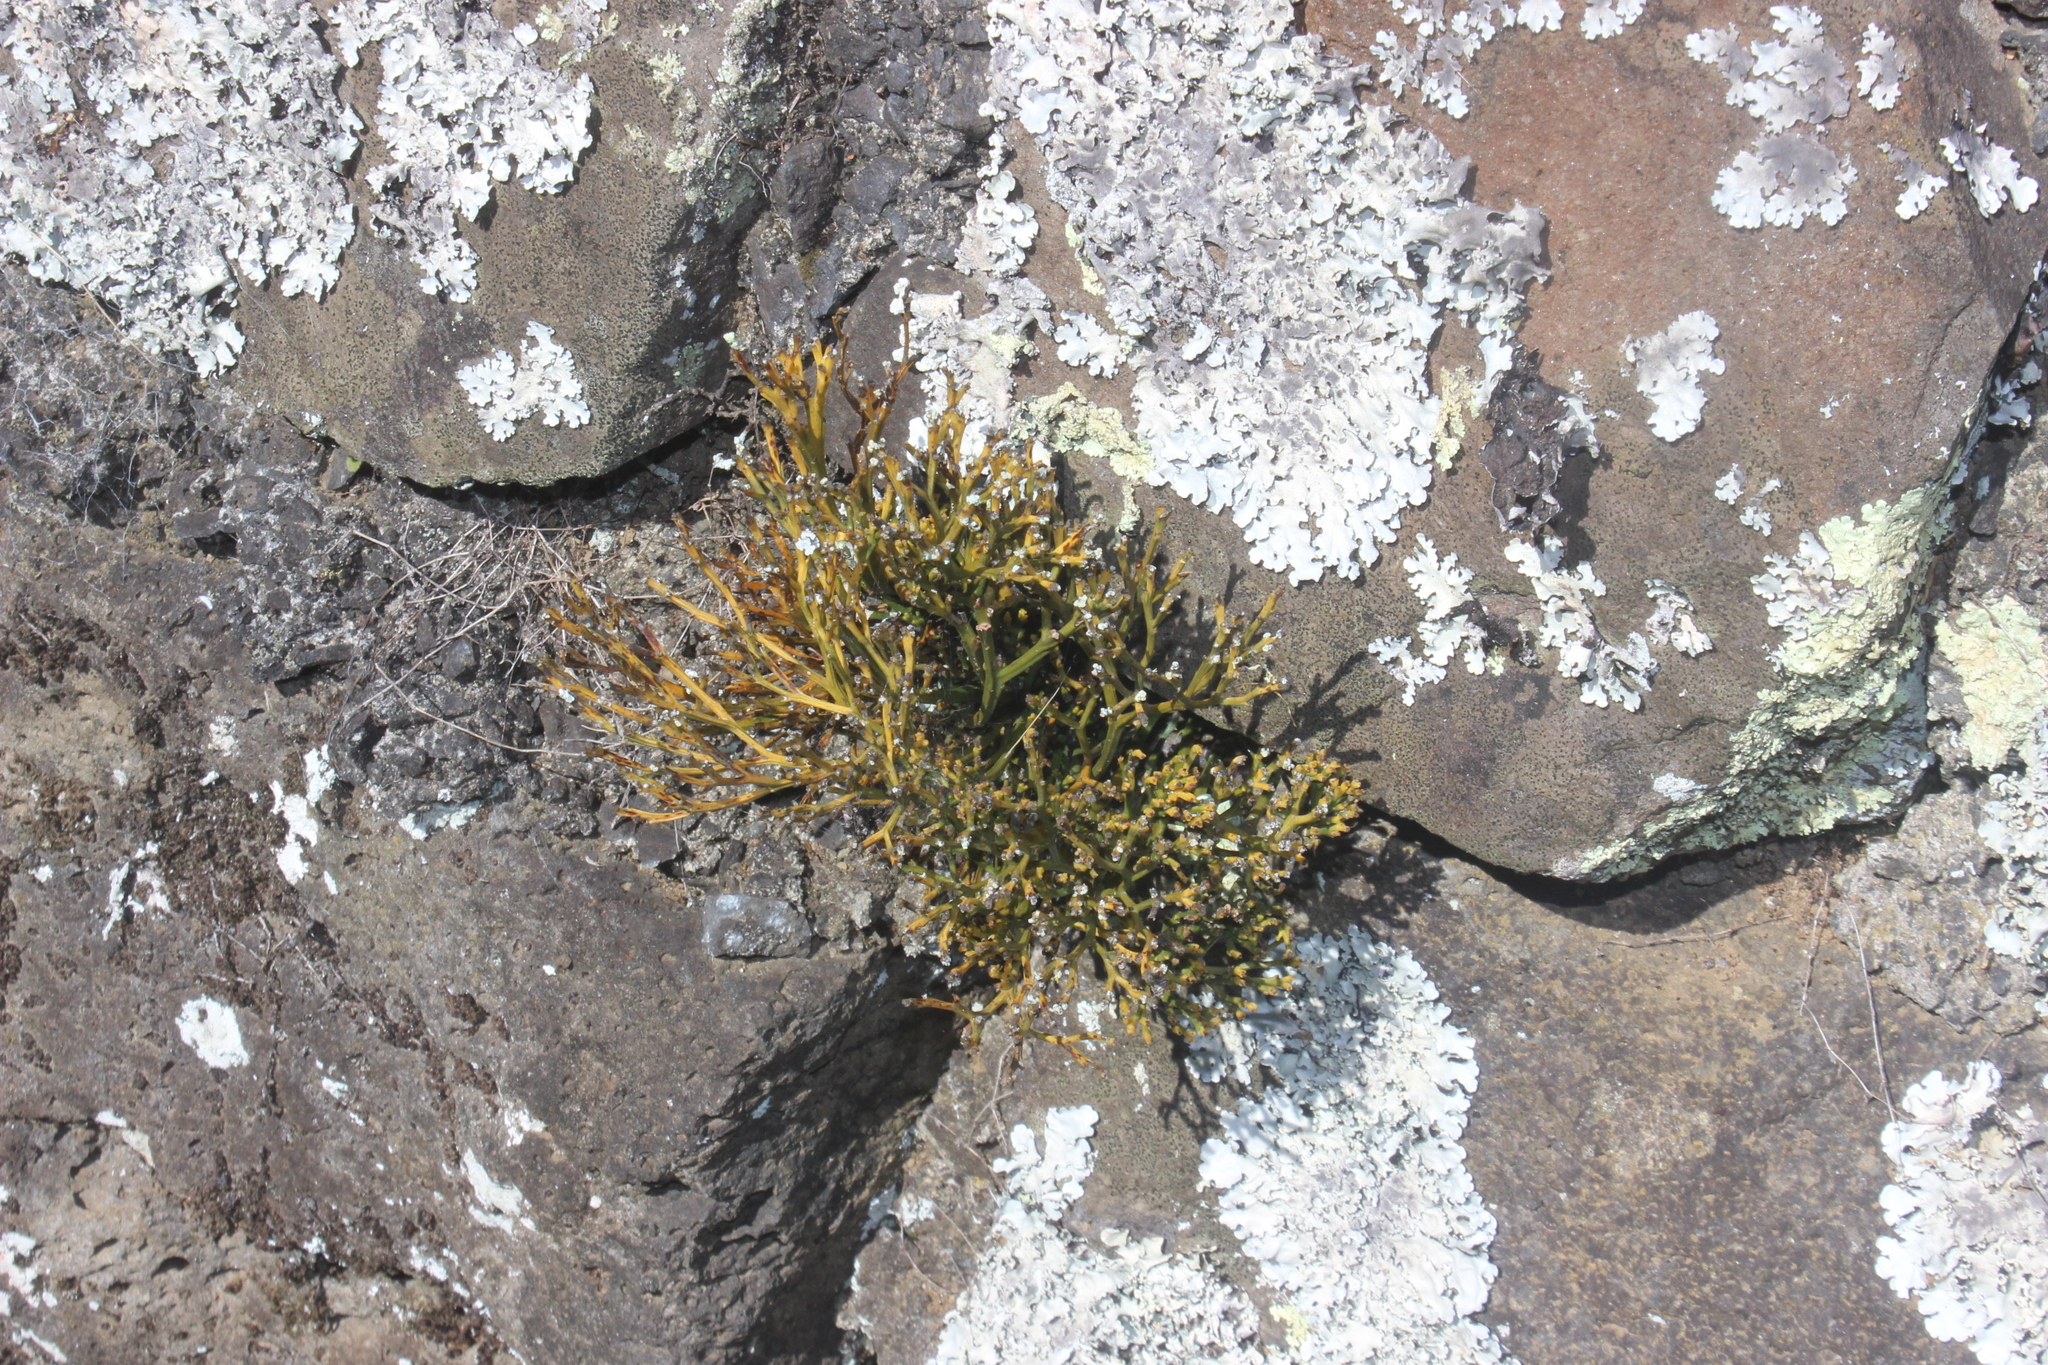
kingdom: Plantae
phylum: Tracheophyta
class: Polypodiopsida
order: Psilotales
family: Psilotaceae
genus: Psilotum
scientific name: Psilotum nudum
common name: Skeleton fork fern
